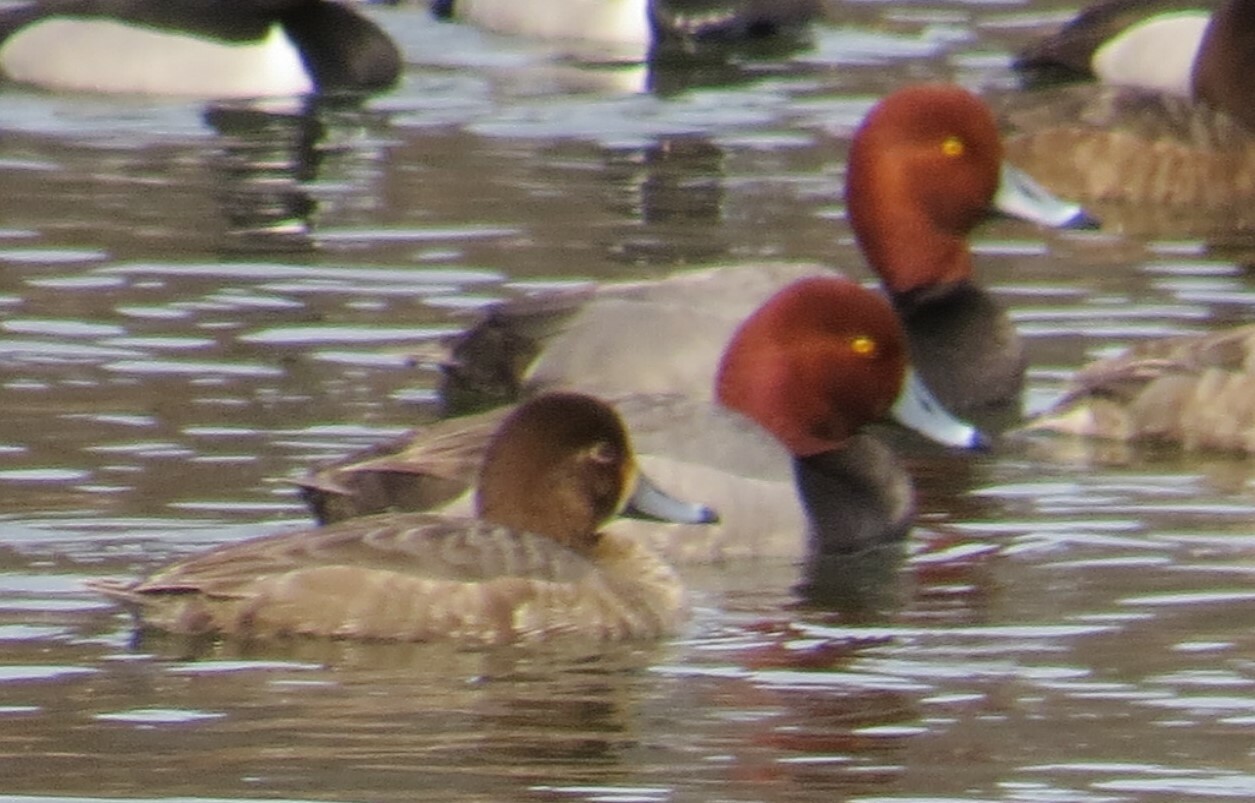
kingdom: Animalia
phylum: Chordata
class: Aves
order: Anseriformes
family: Anatidae
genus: Aythya
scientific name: Aythya americana
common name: Redhead
